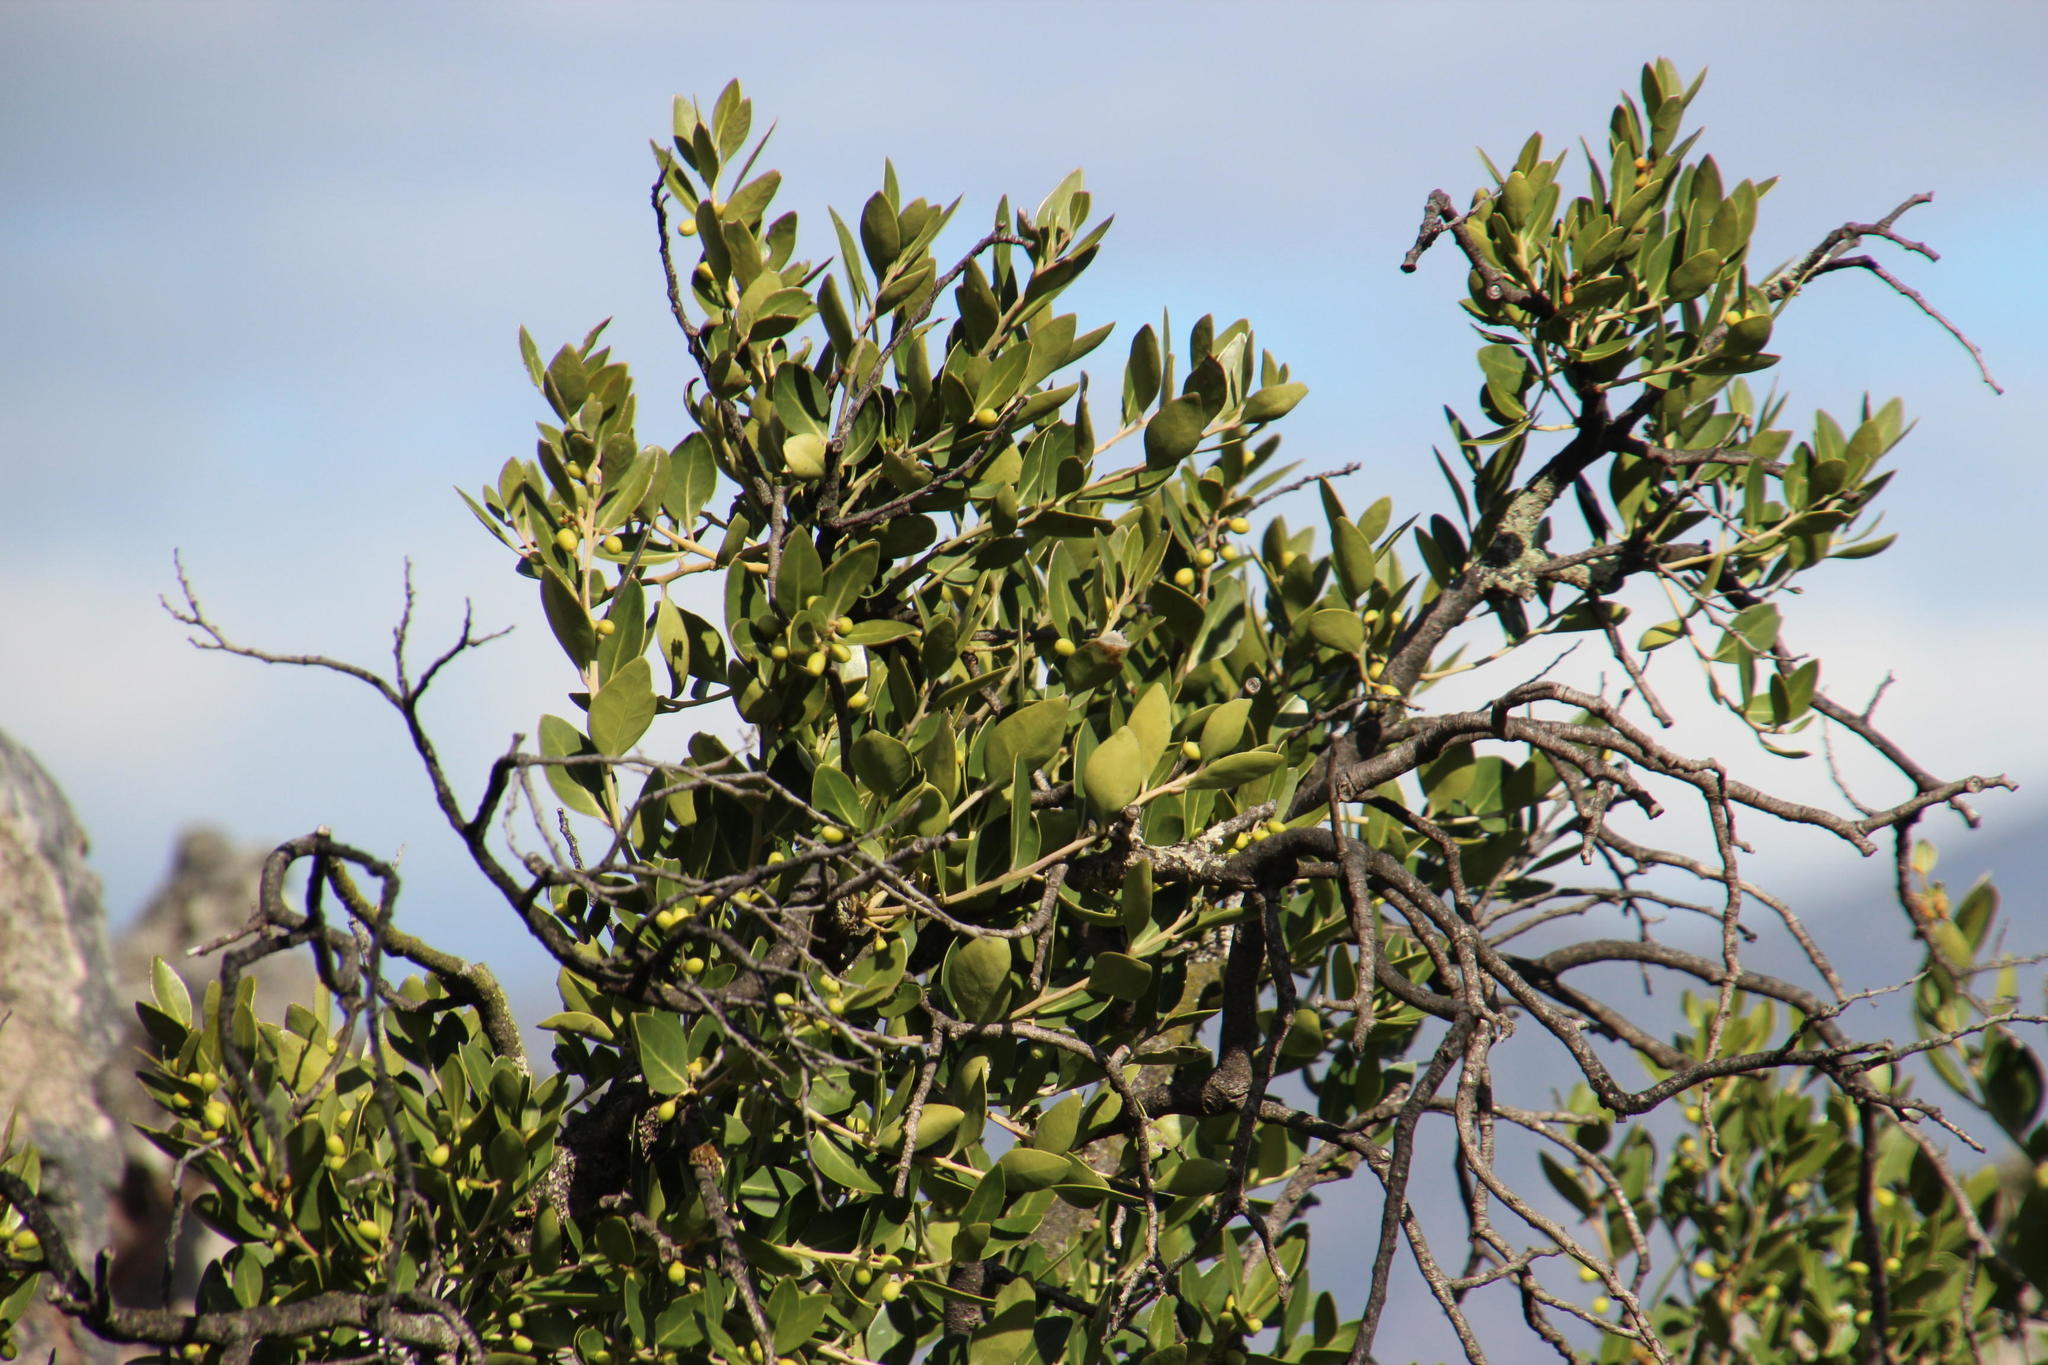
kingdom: Plantae
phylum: Tracheophyta
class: Magnoliopsida
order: Celastrales
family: Celastraceae
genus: Gymnosporia
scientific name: Gymnosporia laurina
